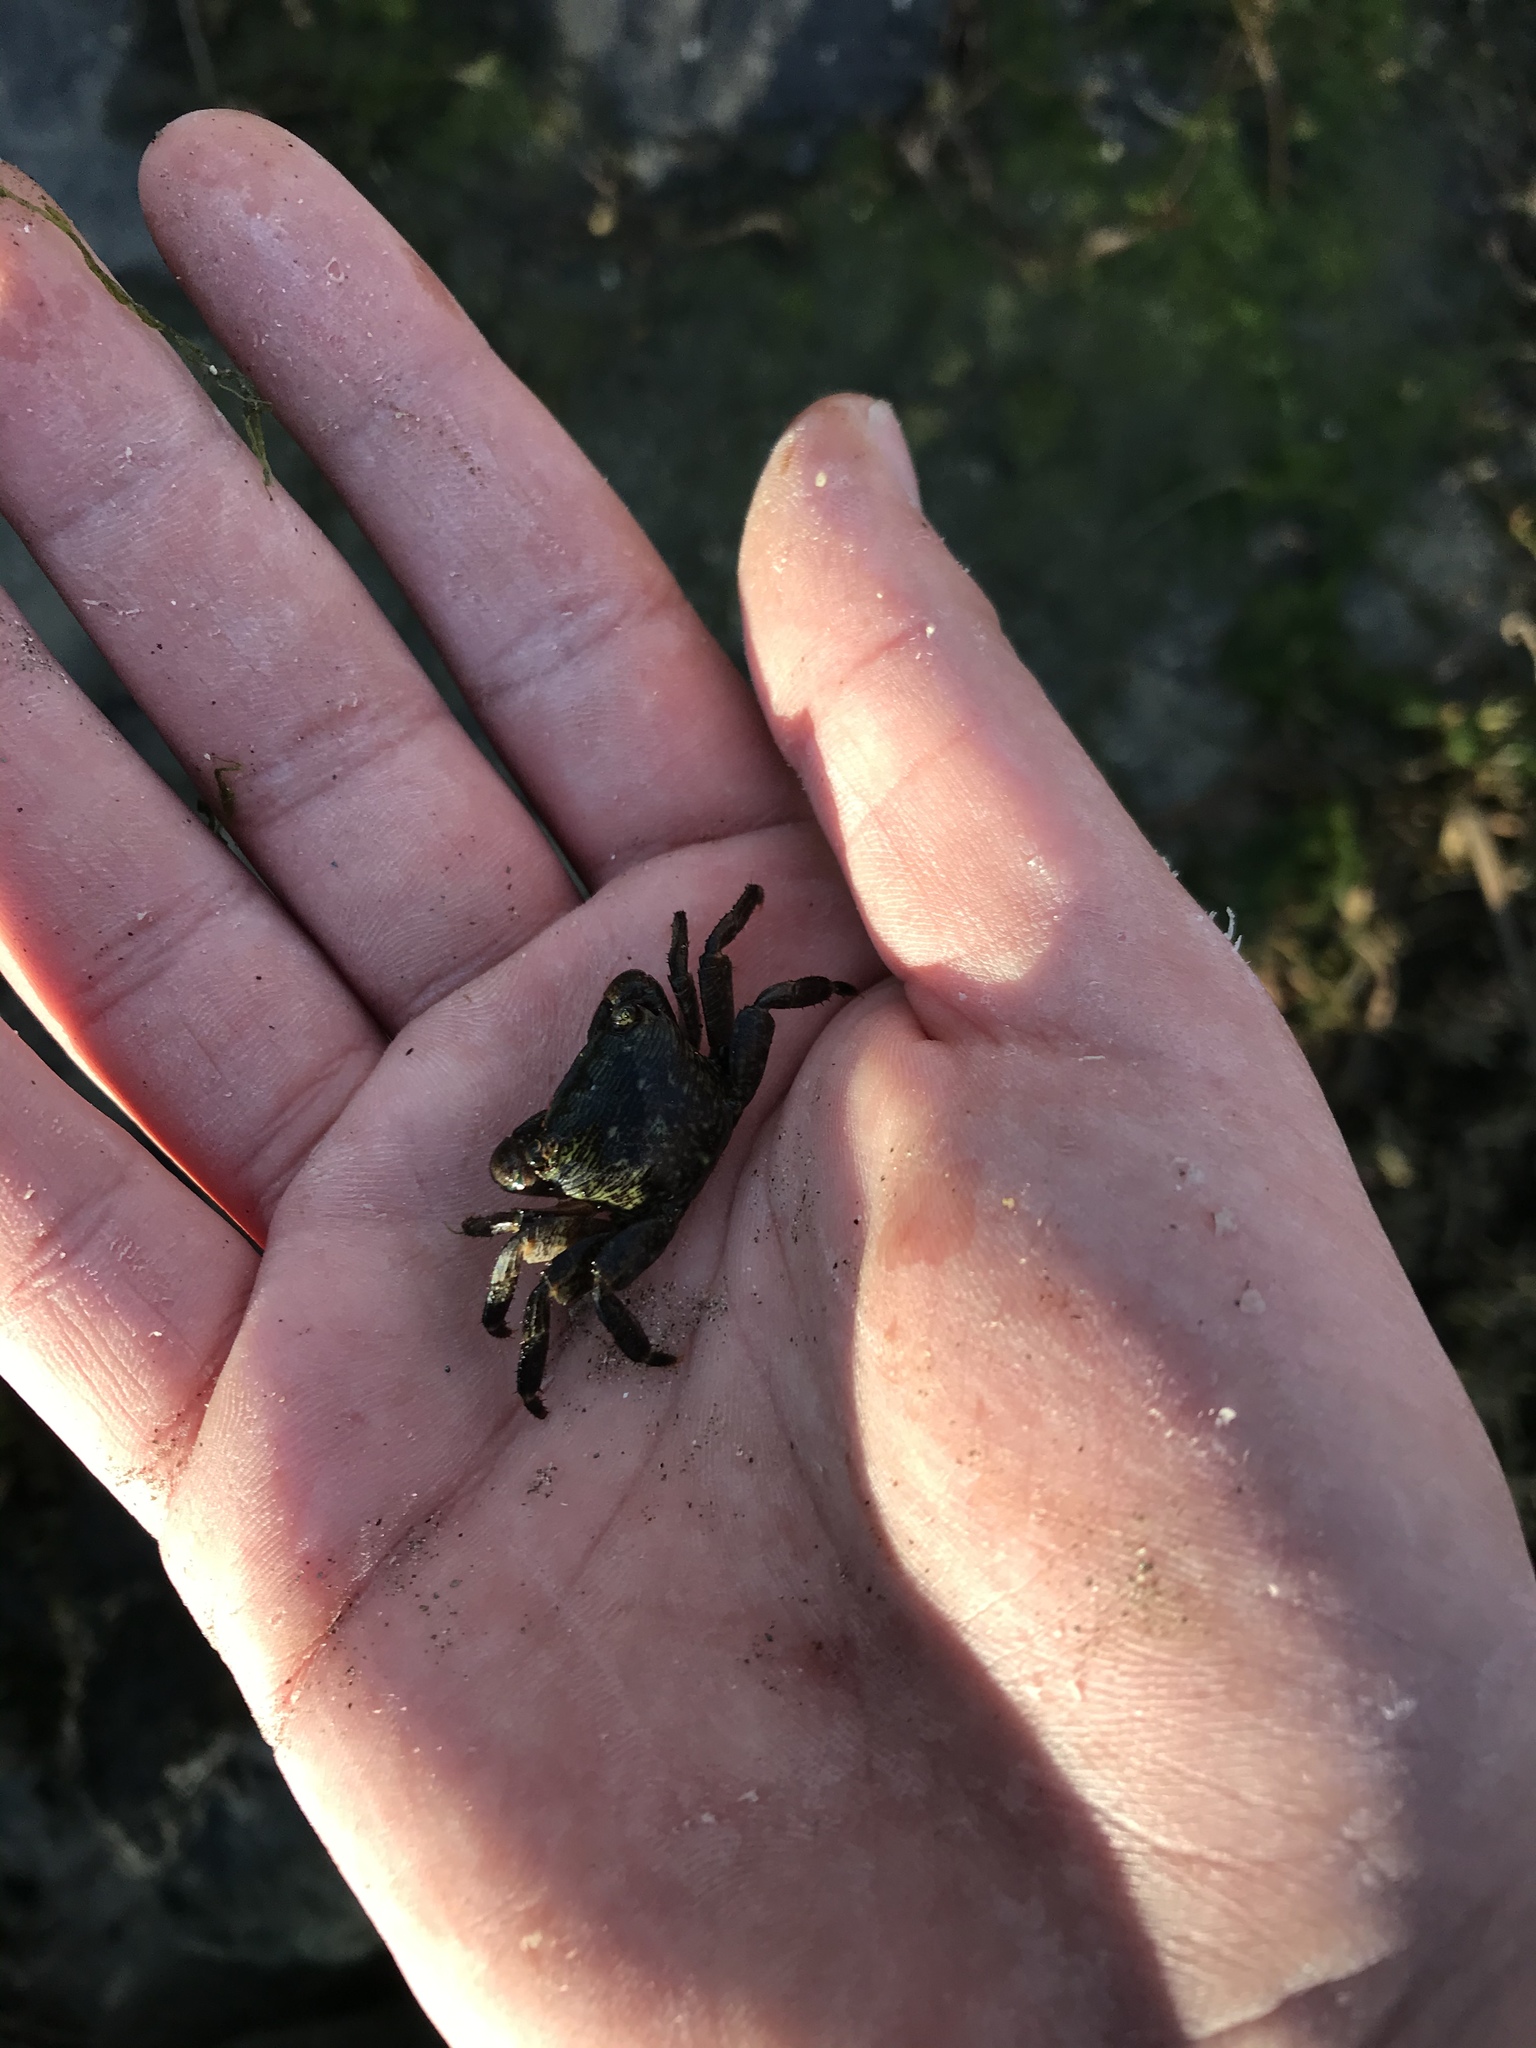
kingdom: Animalia
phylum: Arthropoda
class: Malacostraca
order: Decapoda
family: Grapsidae
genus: Pachygrapsus
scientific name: Pachygrapsus crassipes
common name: Striped shore crab
